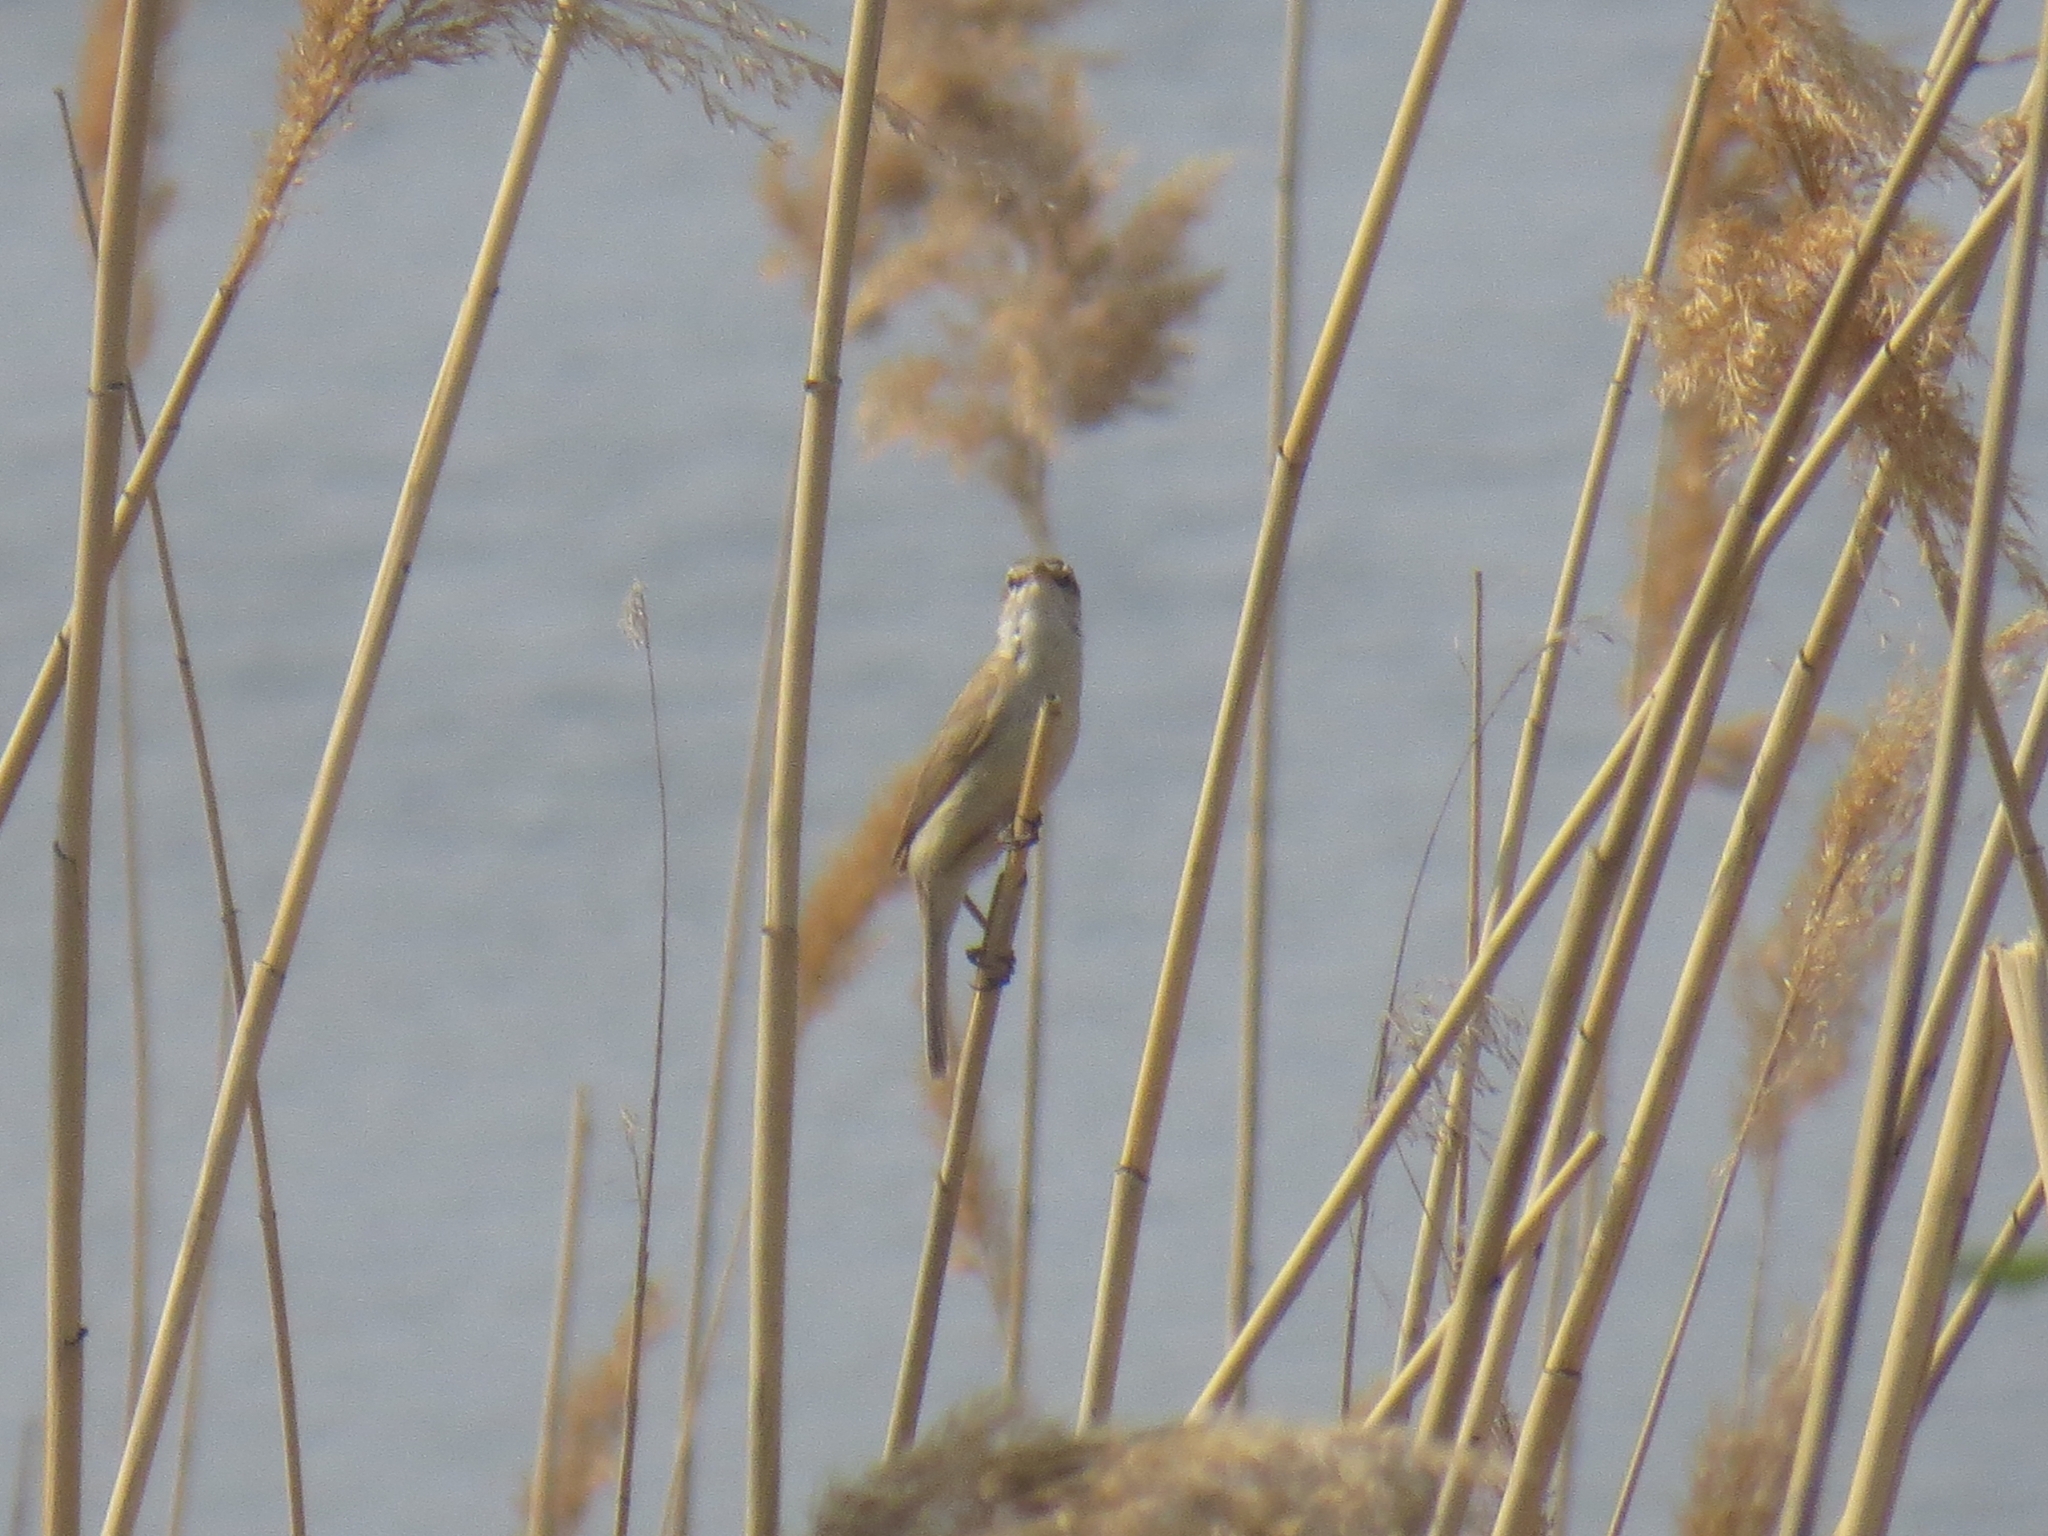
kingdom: Animalia
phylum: Chordata
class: Aves
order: Passeriformes
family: Acrocephalidae
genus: Acrocephalus
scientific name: Acrocephalus agricola
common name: Paddyfield warbler
